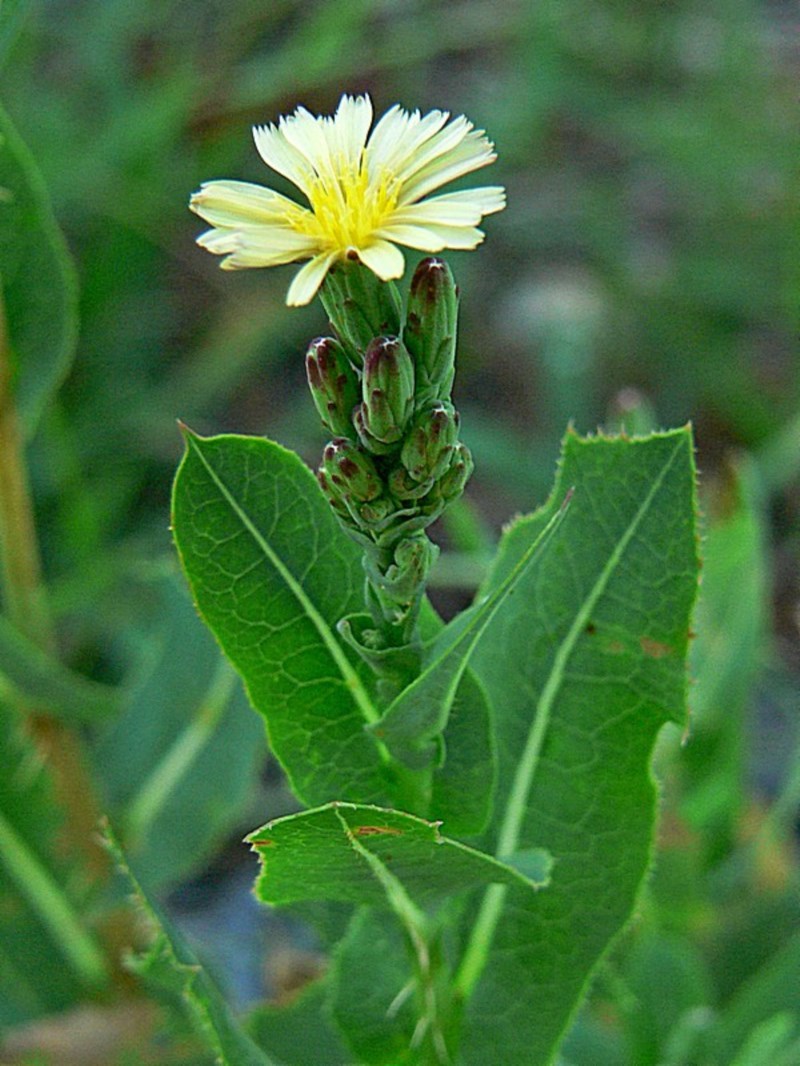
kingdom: Plantae
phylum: Tracheophyta
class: Magnoliopsida
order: Asterales
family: Asteraceae
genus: Lactuca
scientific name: Lactuca serriola
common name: Prickly lettuce
